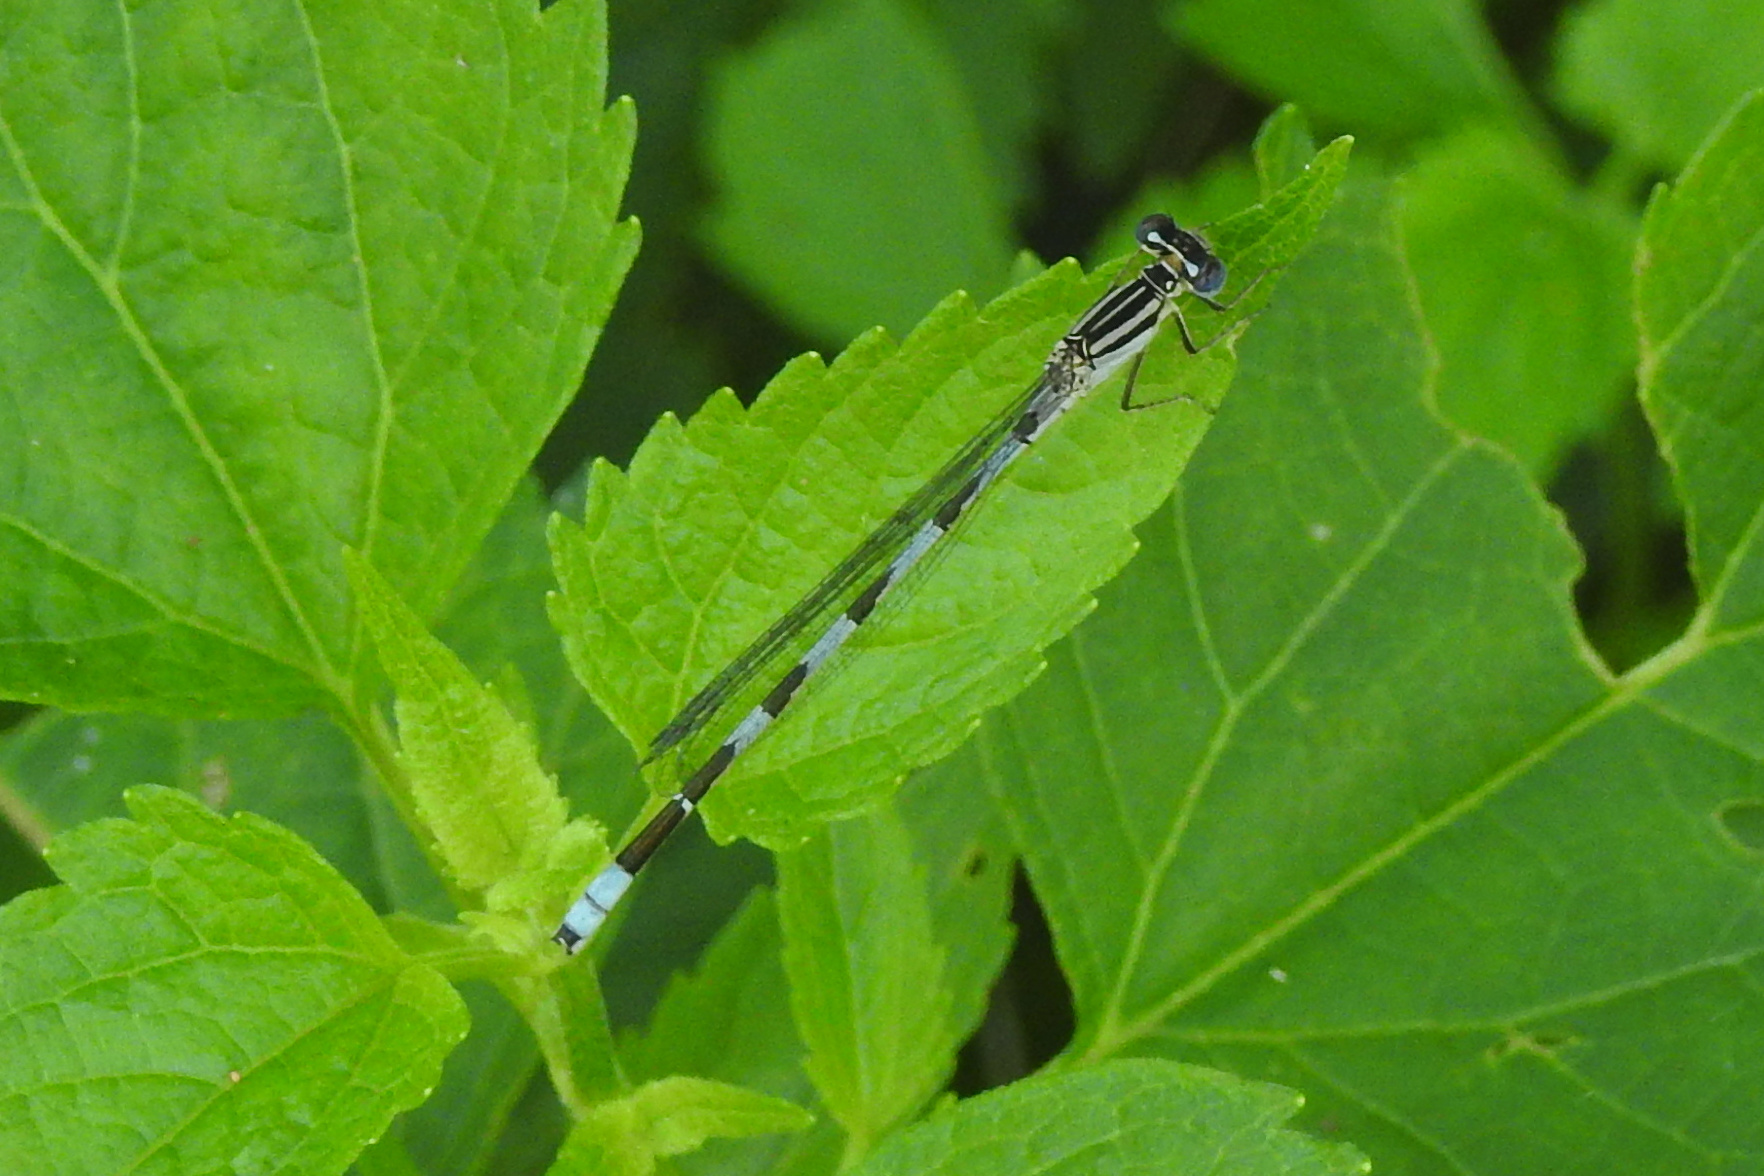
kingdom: Animalia
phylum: Arthropoda
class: Insecta
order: Odonata
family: Coenagrionidae
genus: Enallagma
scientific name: Enallagma durum
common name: Big bluet
